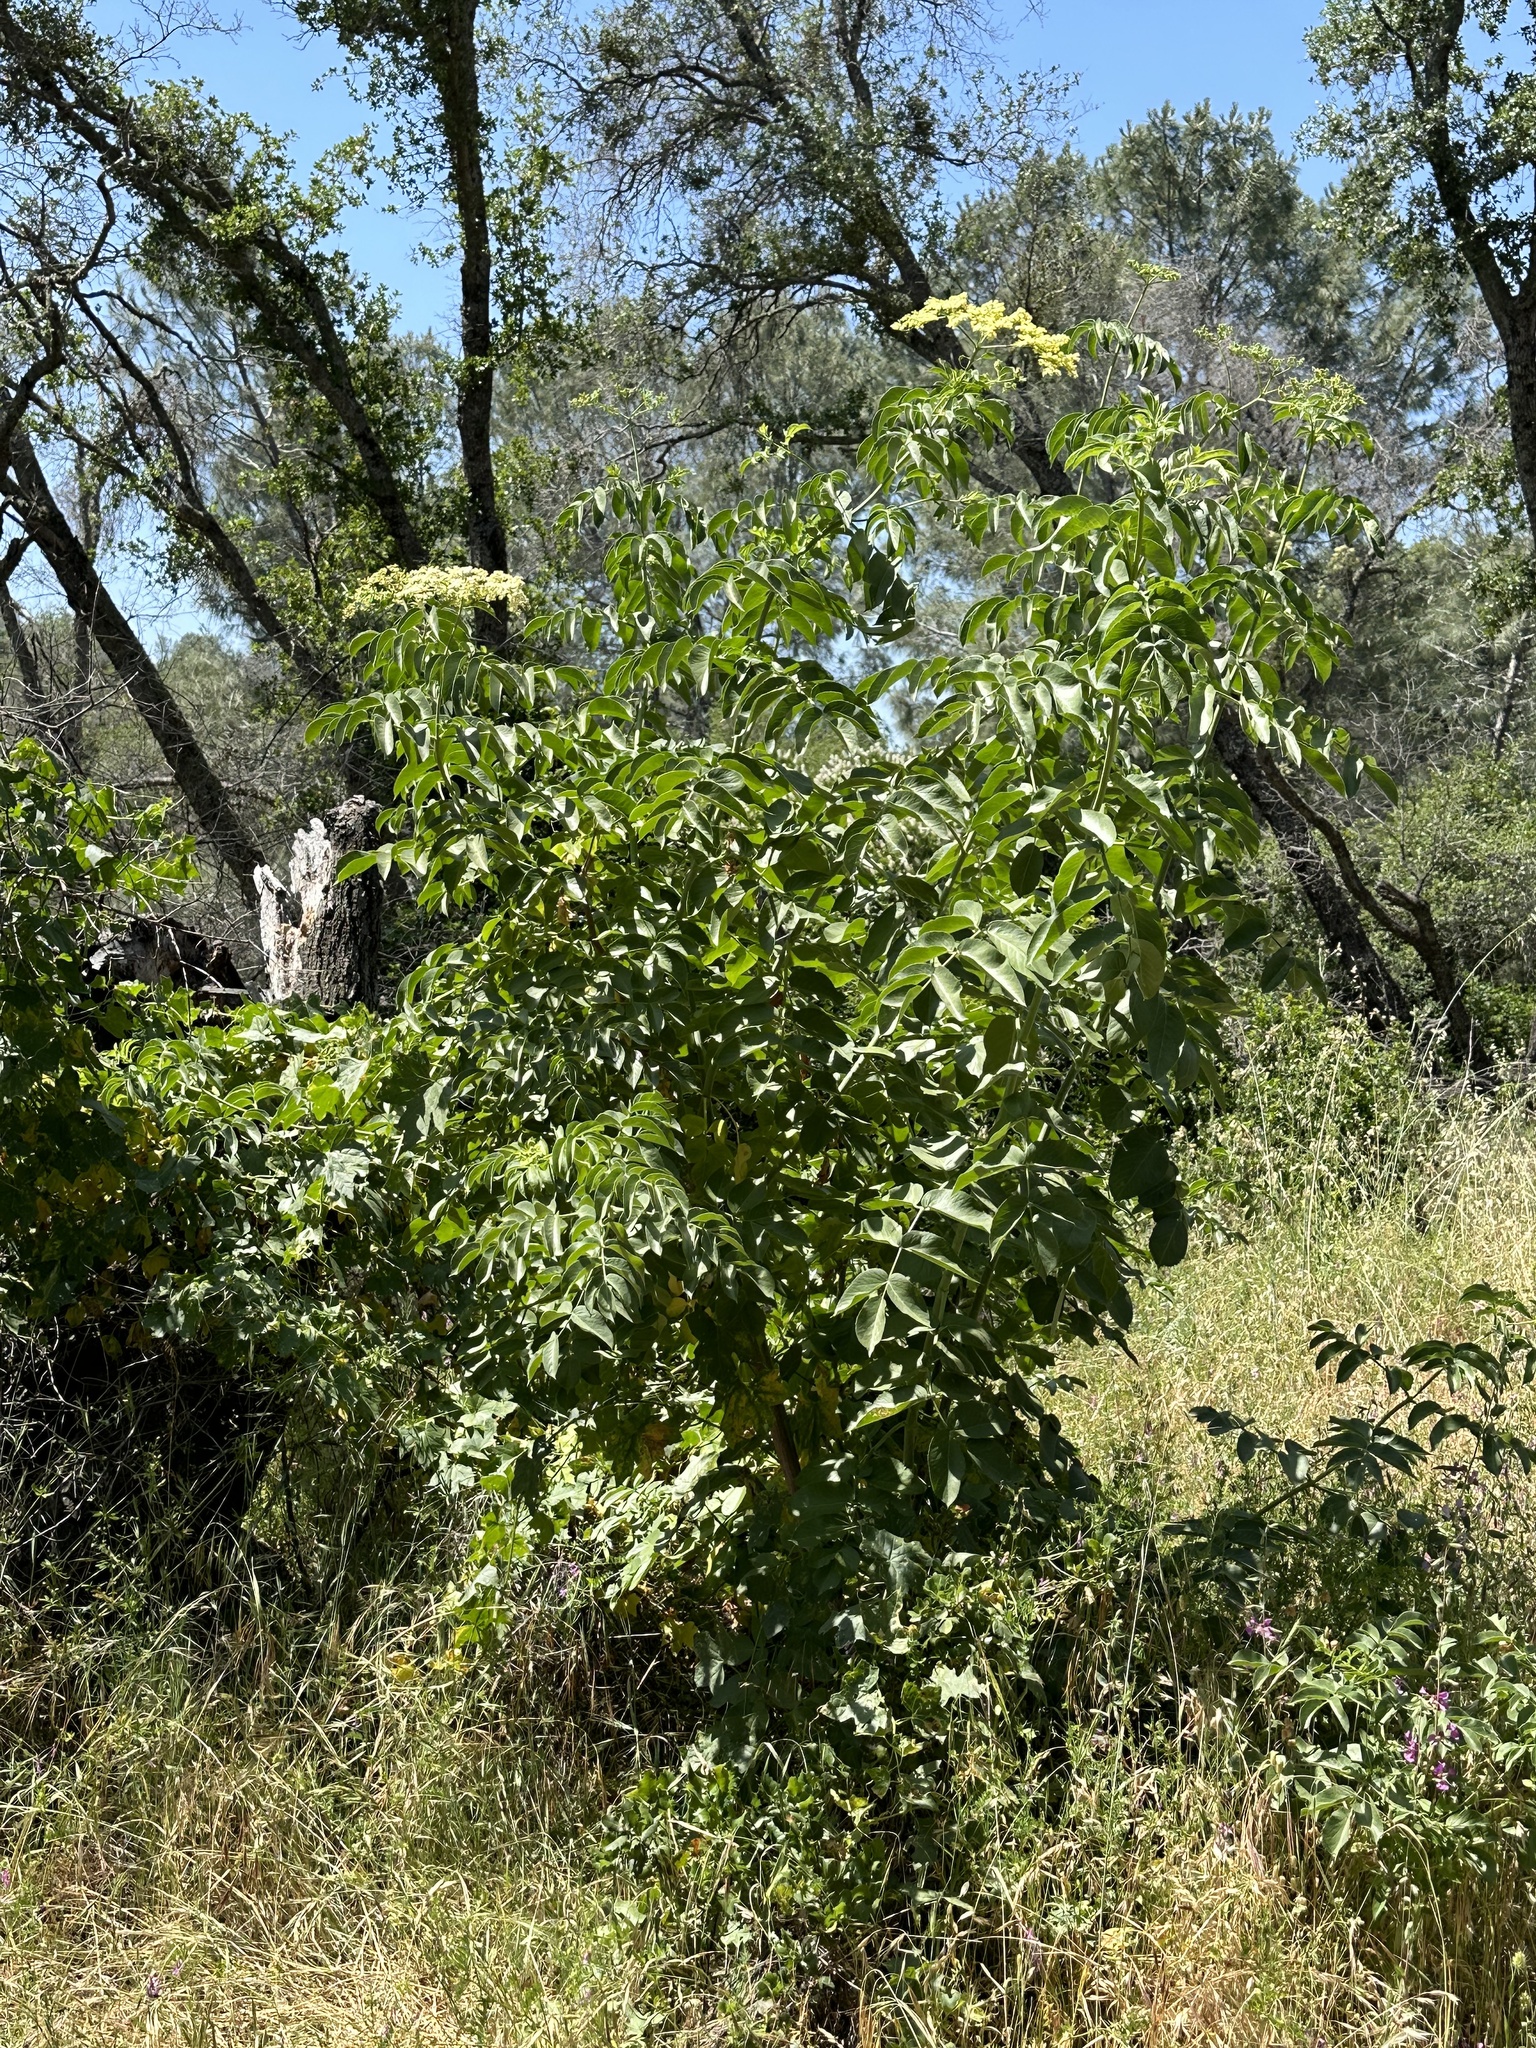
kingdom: Plantae
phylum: Tracheophyta
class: Magnoliopsida
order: Dipsacales
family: Viburnaceae
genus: Sambucus
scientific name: Sambucus cerulea
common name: Blue elder
